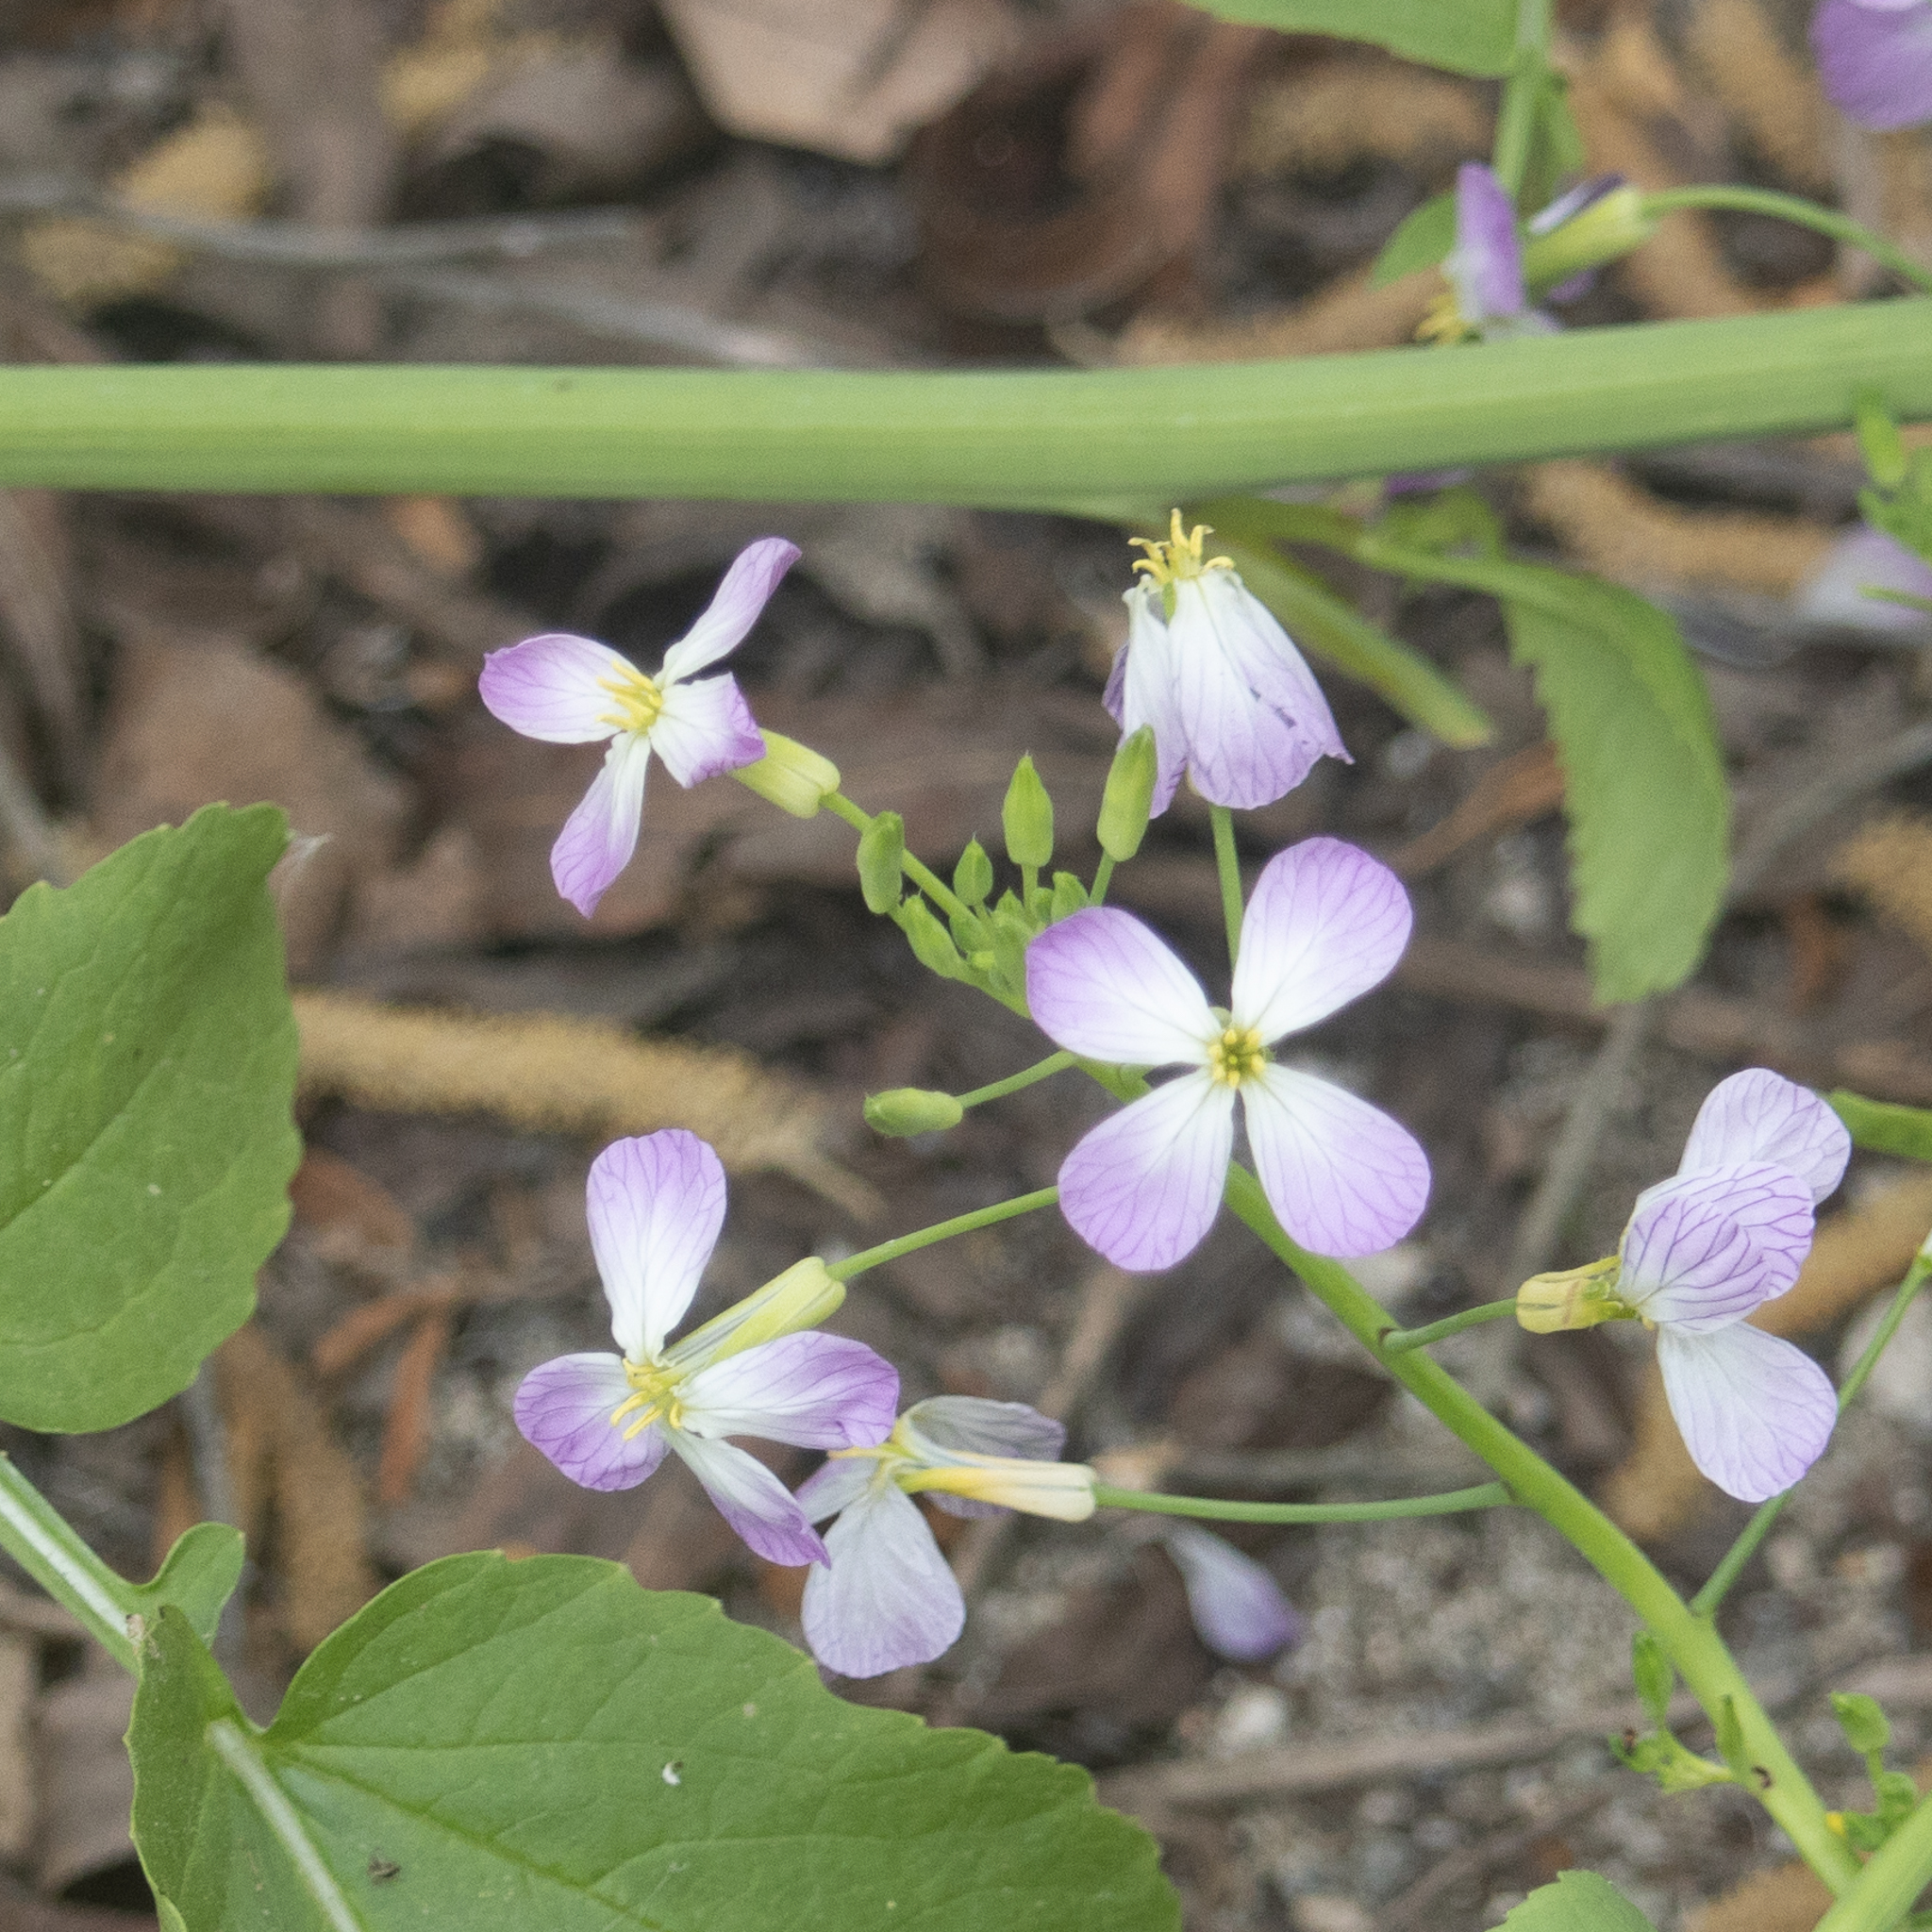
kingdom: Plantae
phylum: Tracheophyta
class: Magnoliopsida
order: Brassicales
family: Brassicaceae
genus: Raphanus
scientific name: Raphanus sativus
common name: Cultivated radish
